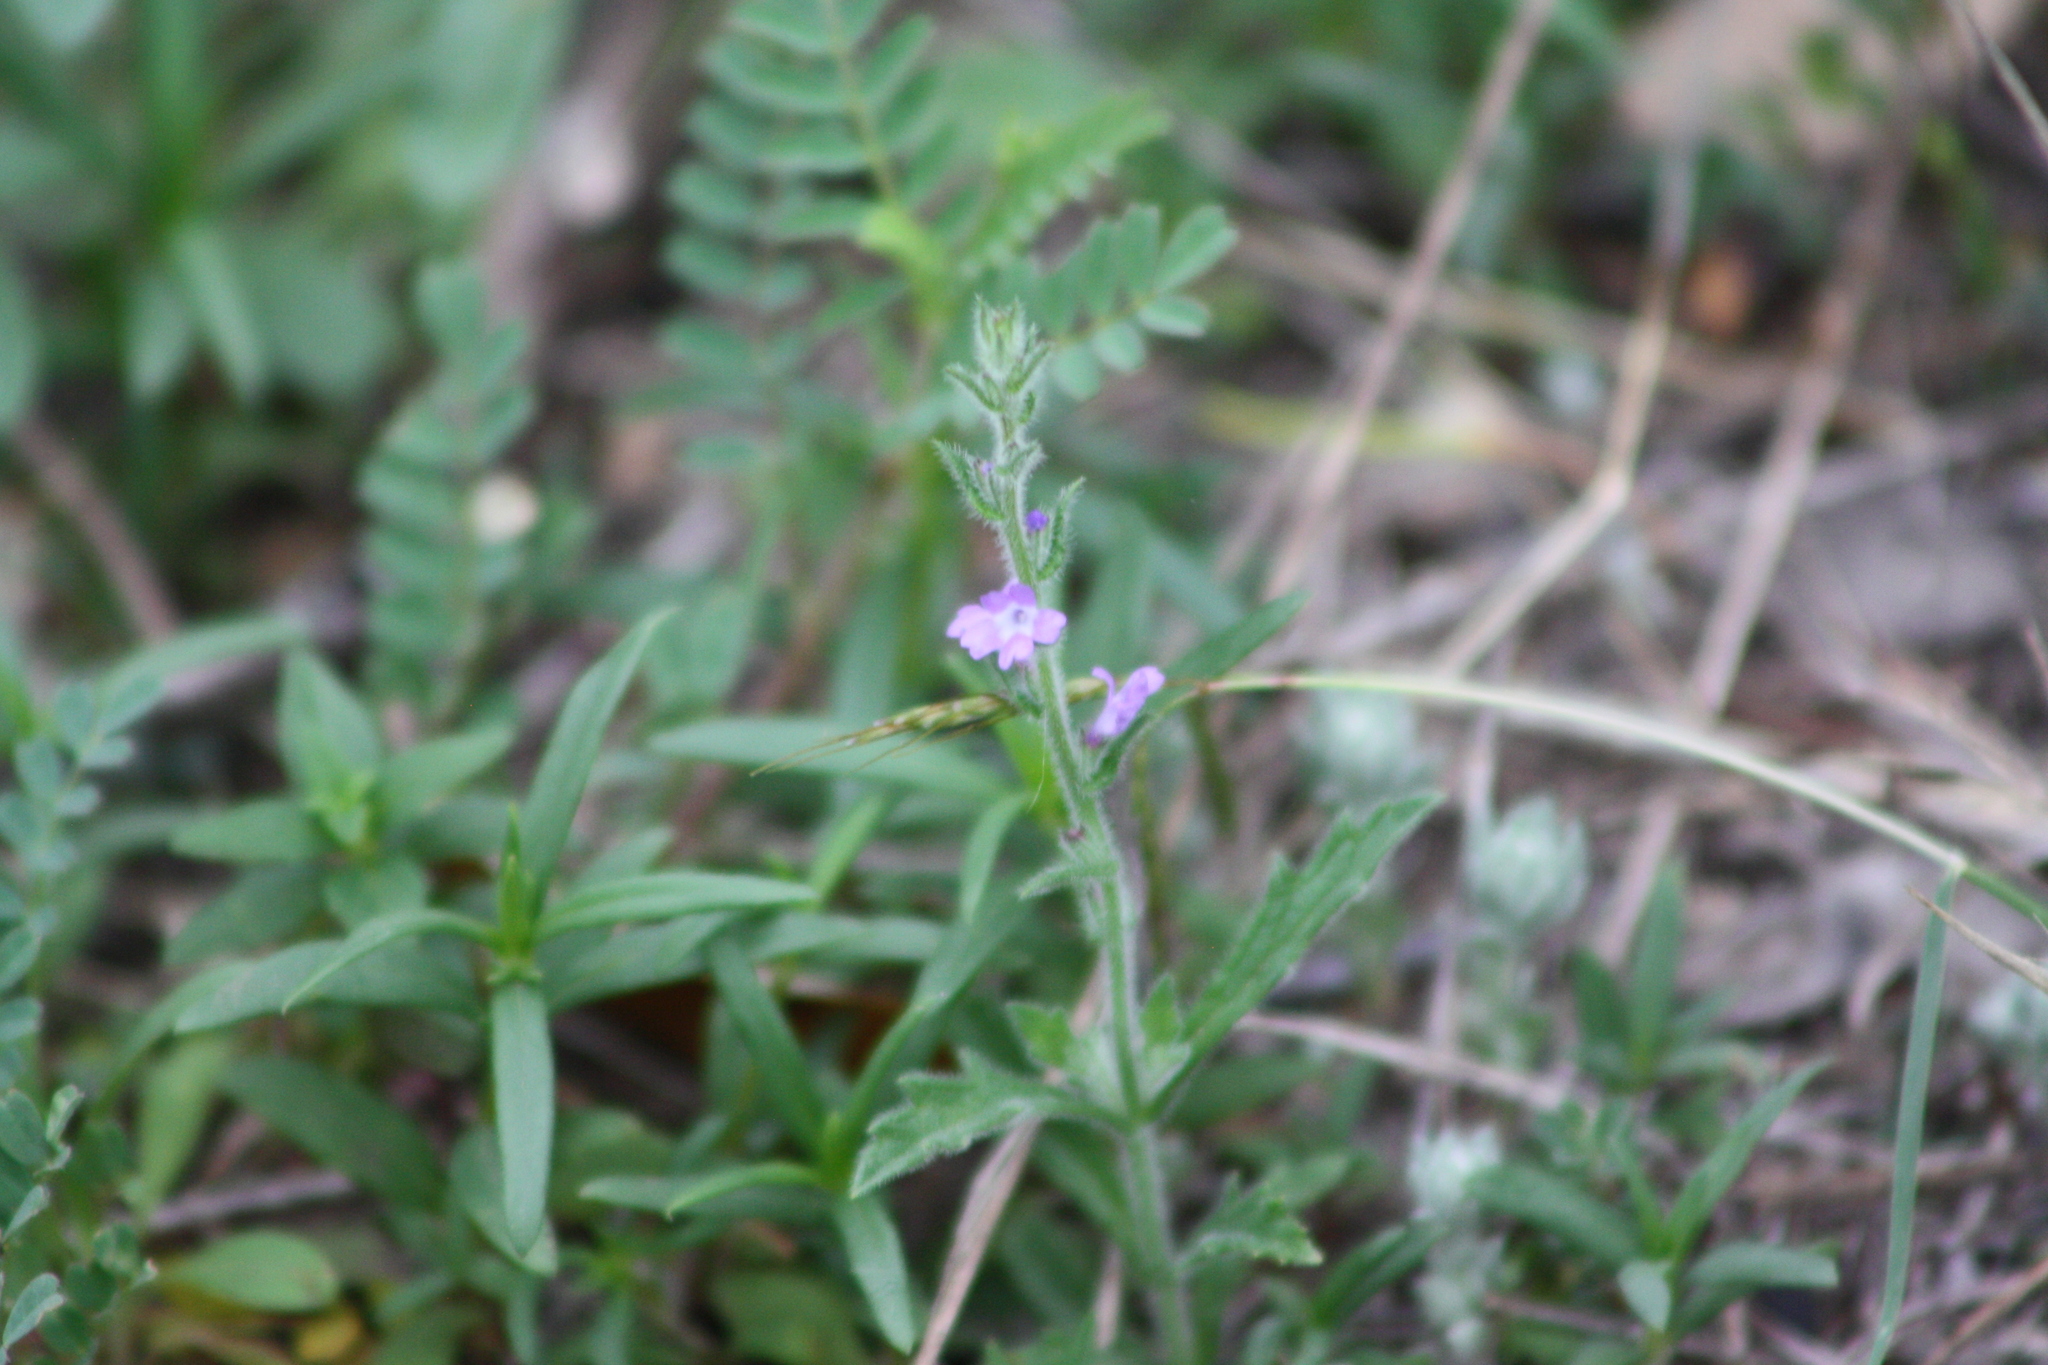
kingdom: Plantae
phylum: Tracheophyta
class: Magnoliopsida
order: Lamiales
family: Verbenaceae
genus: Verbena
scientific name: Verbena canescens
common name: Gray vervain
